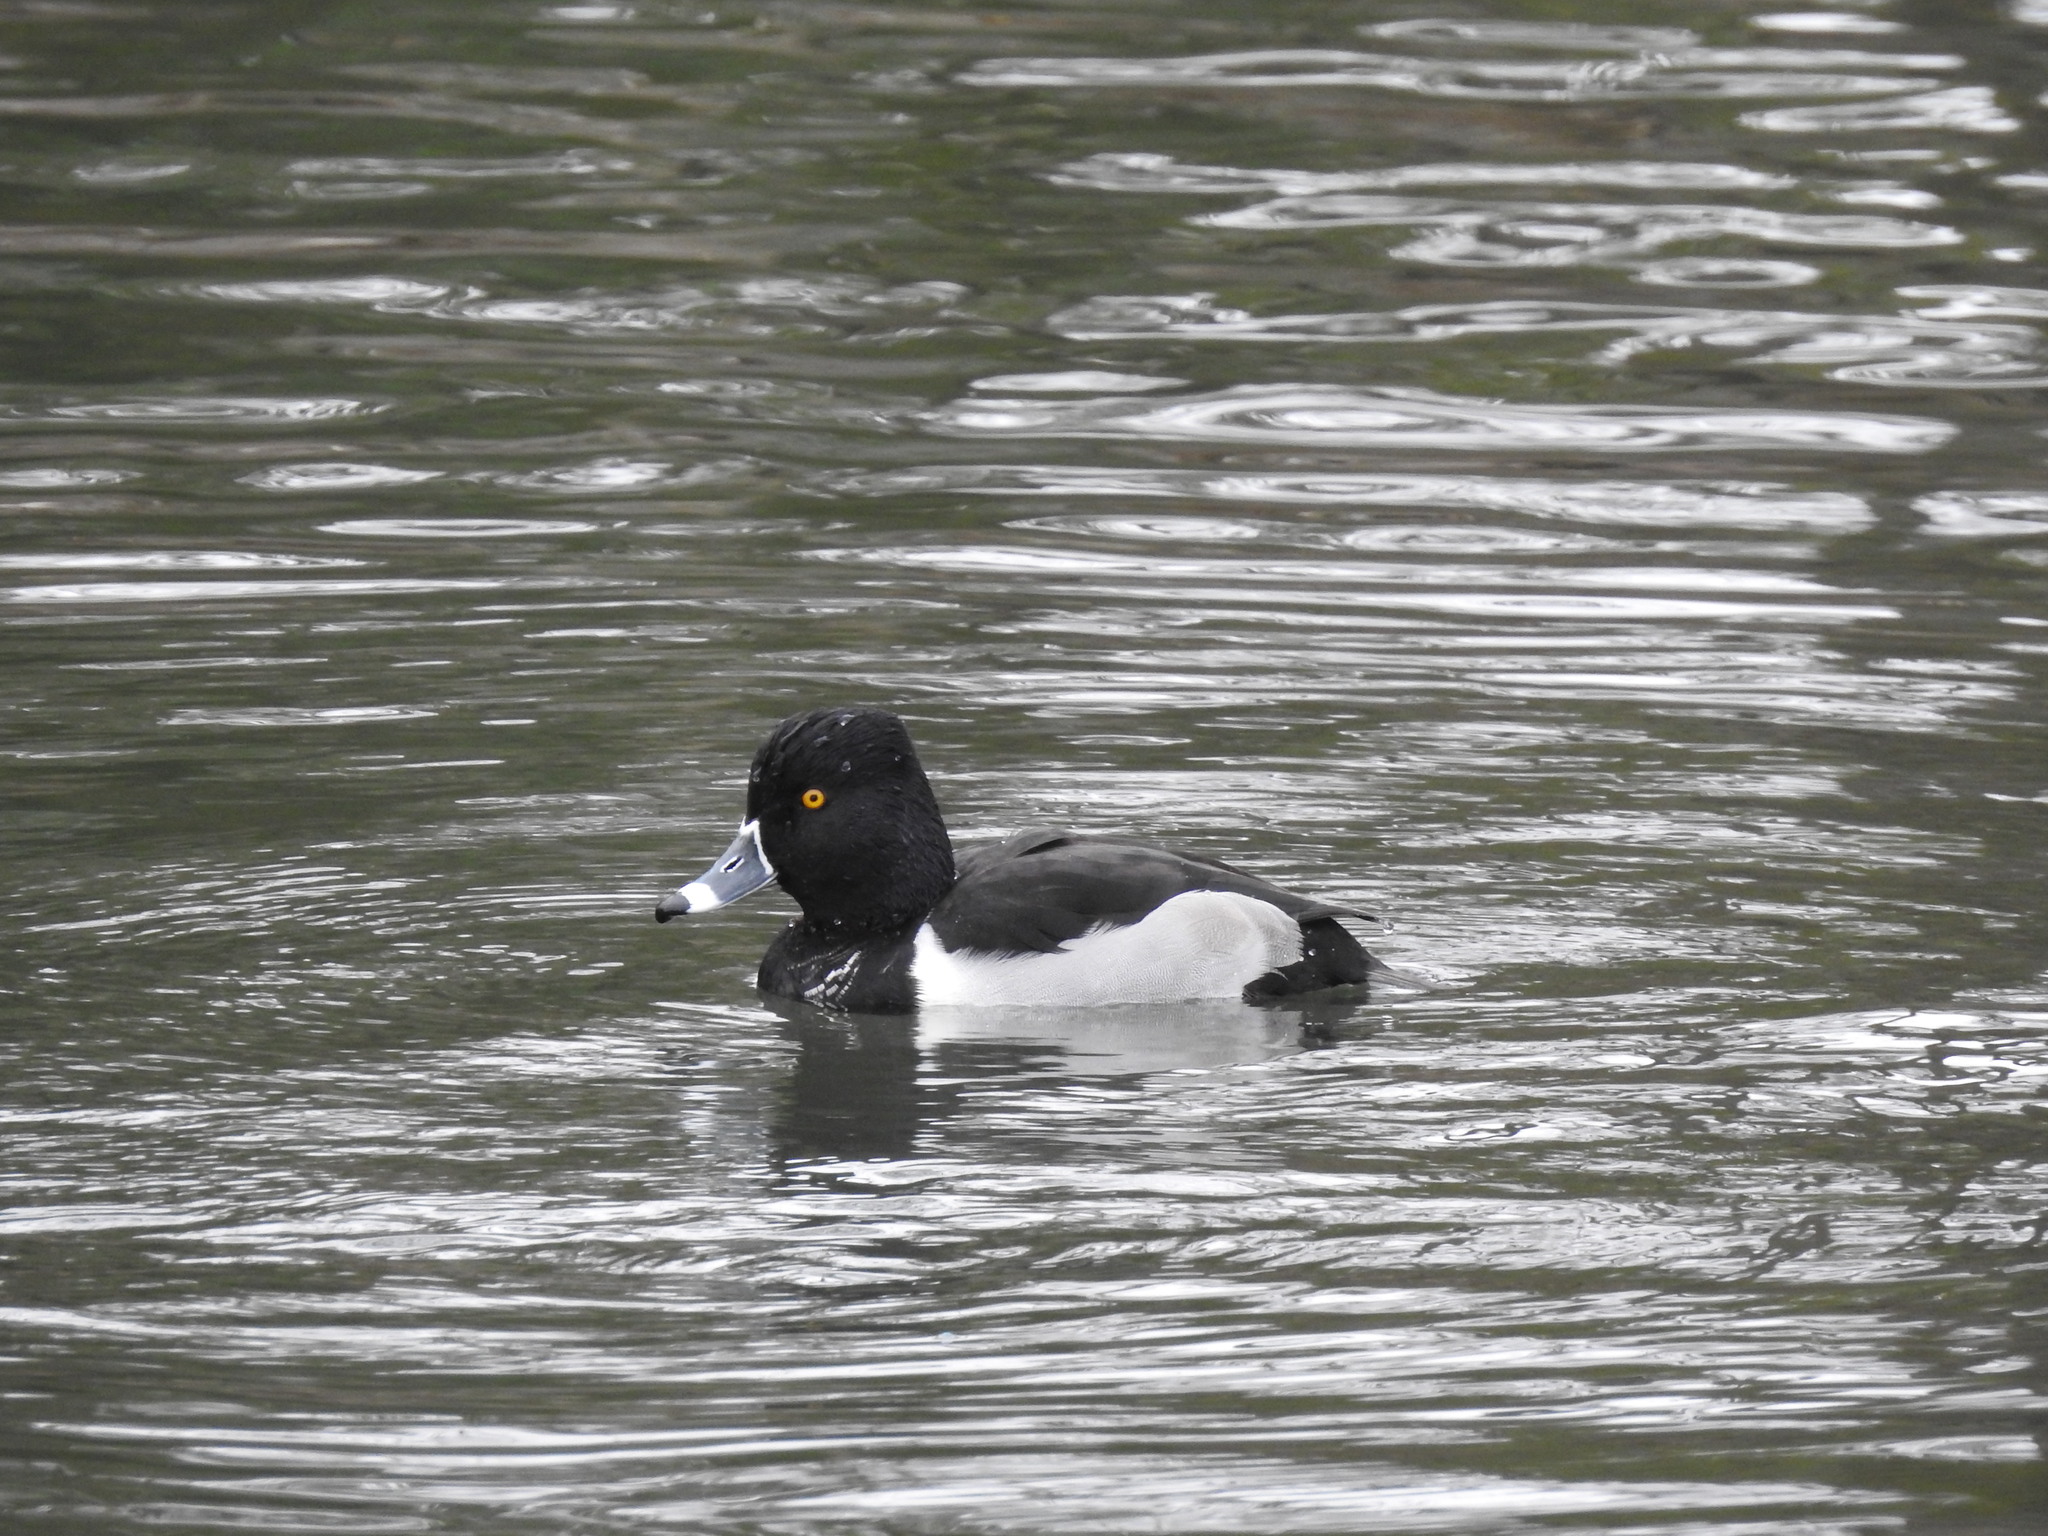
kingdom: Animalia
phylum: Chordata
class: Aves
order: Anseriformes
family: Anatidae
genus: Aythya
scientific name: Aythya collaris
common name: Ring-necked duck
